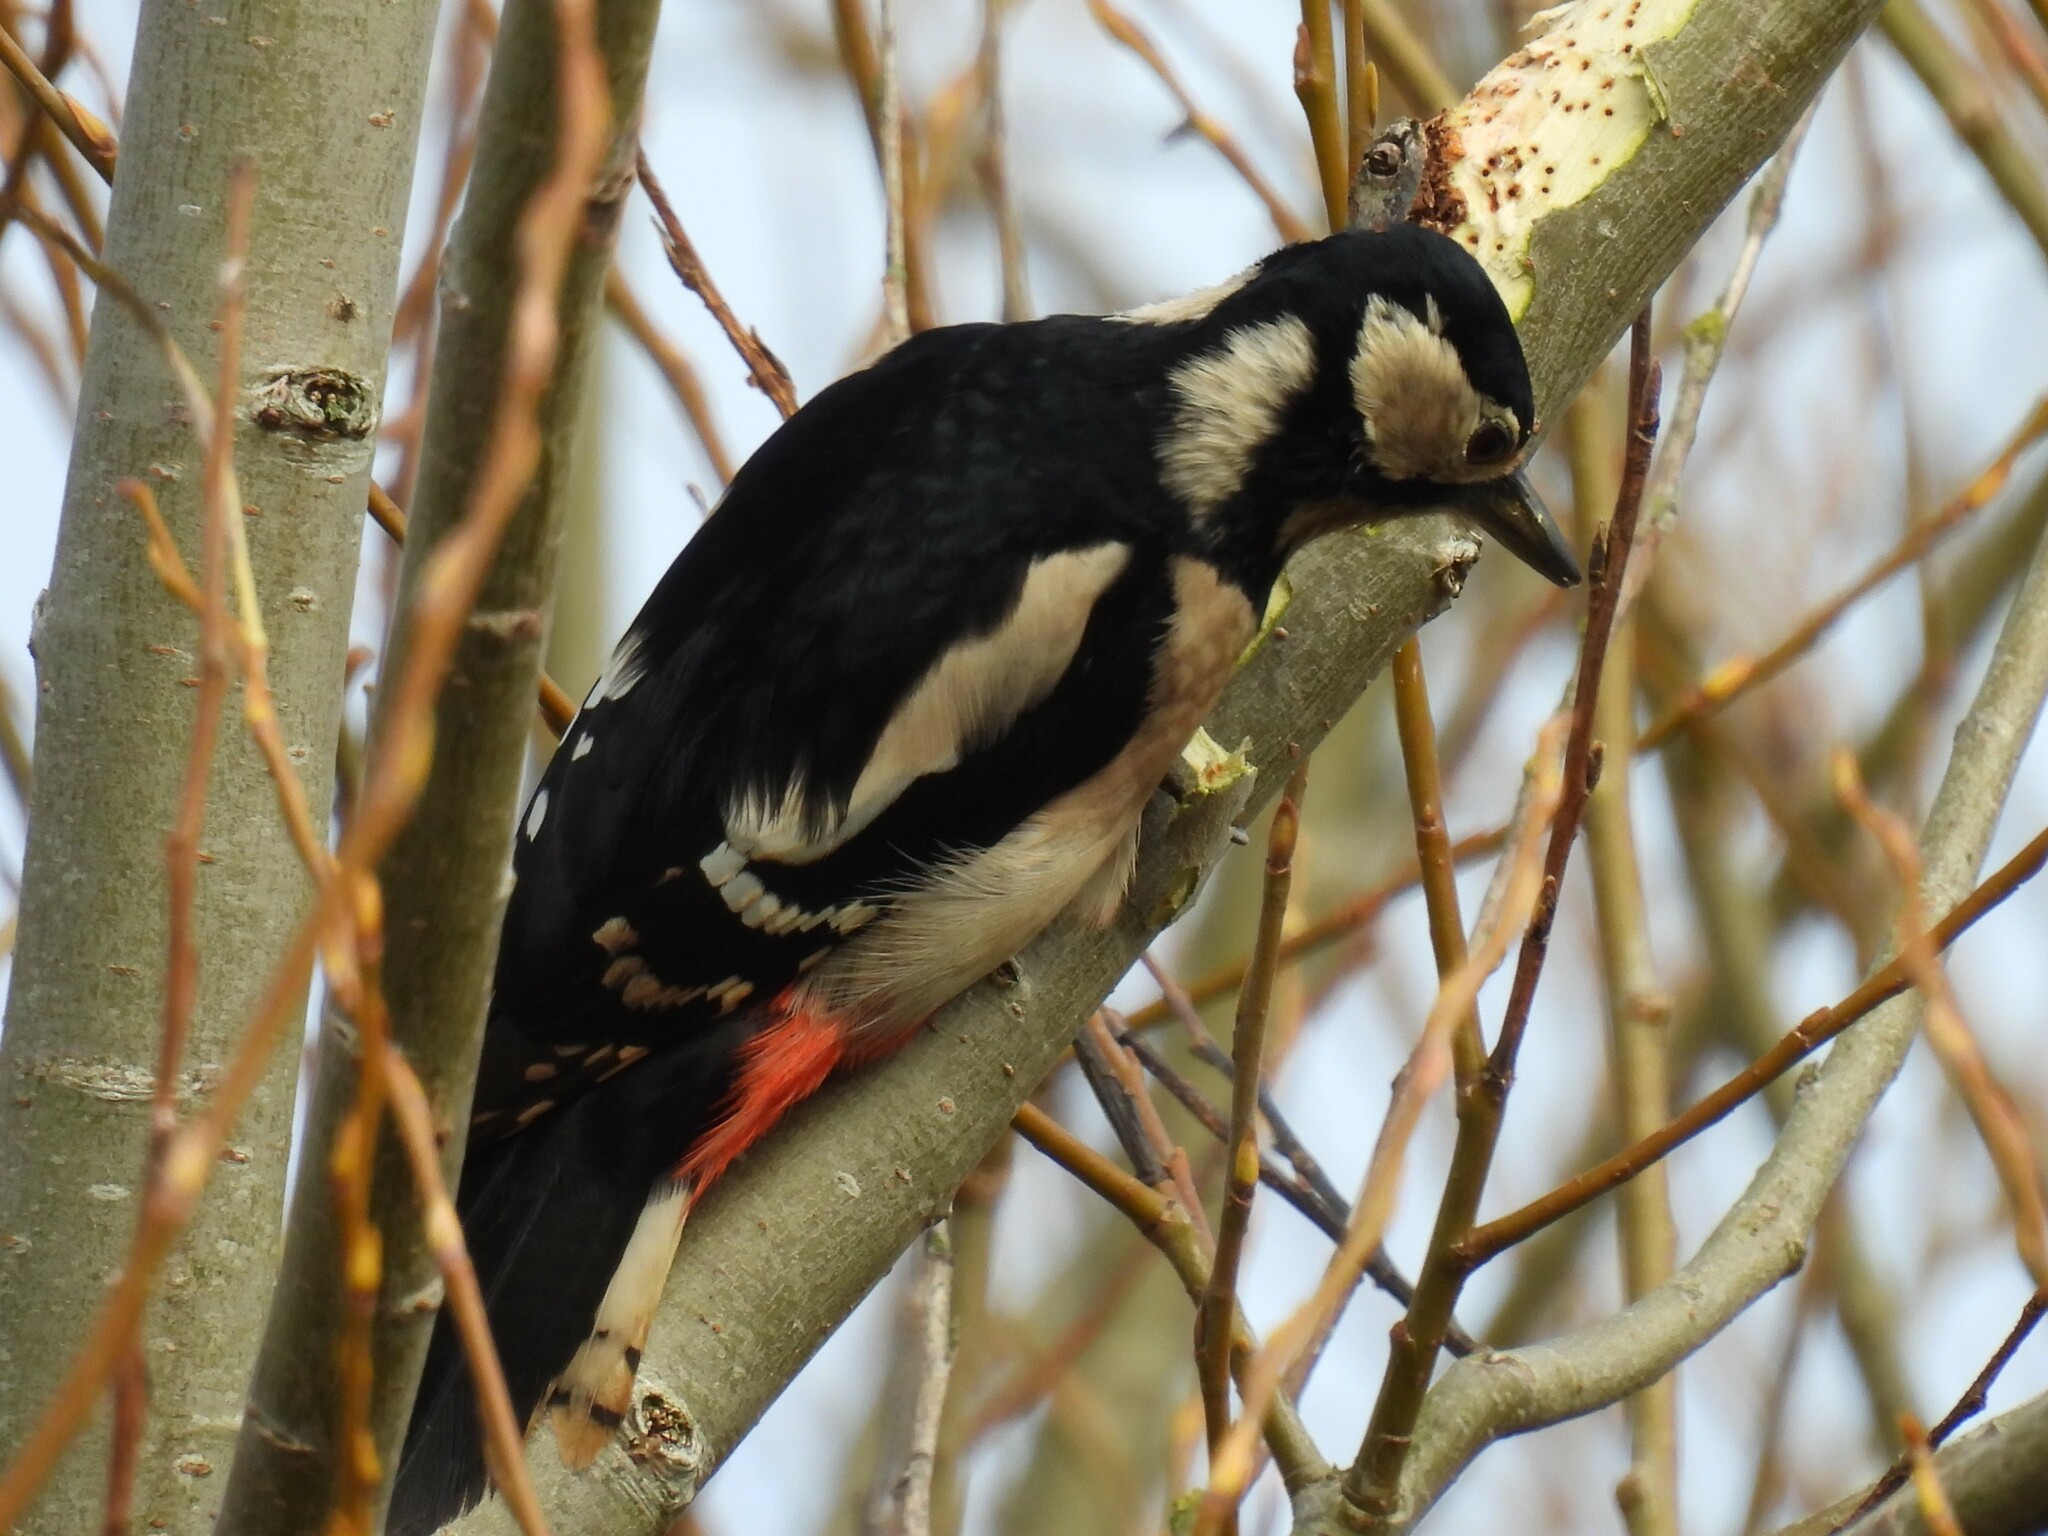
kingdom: Animalia
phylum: Chordata
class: Aves
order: Piciformes
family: Picidae
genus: Dendrocopos
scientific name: Dendrocopos major
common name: Great spotted woodpecker
